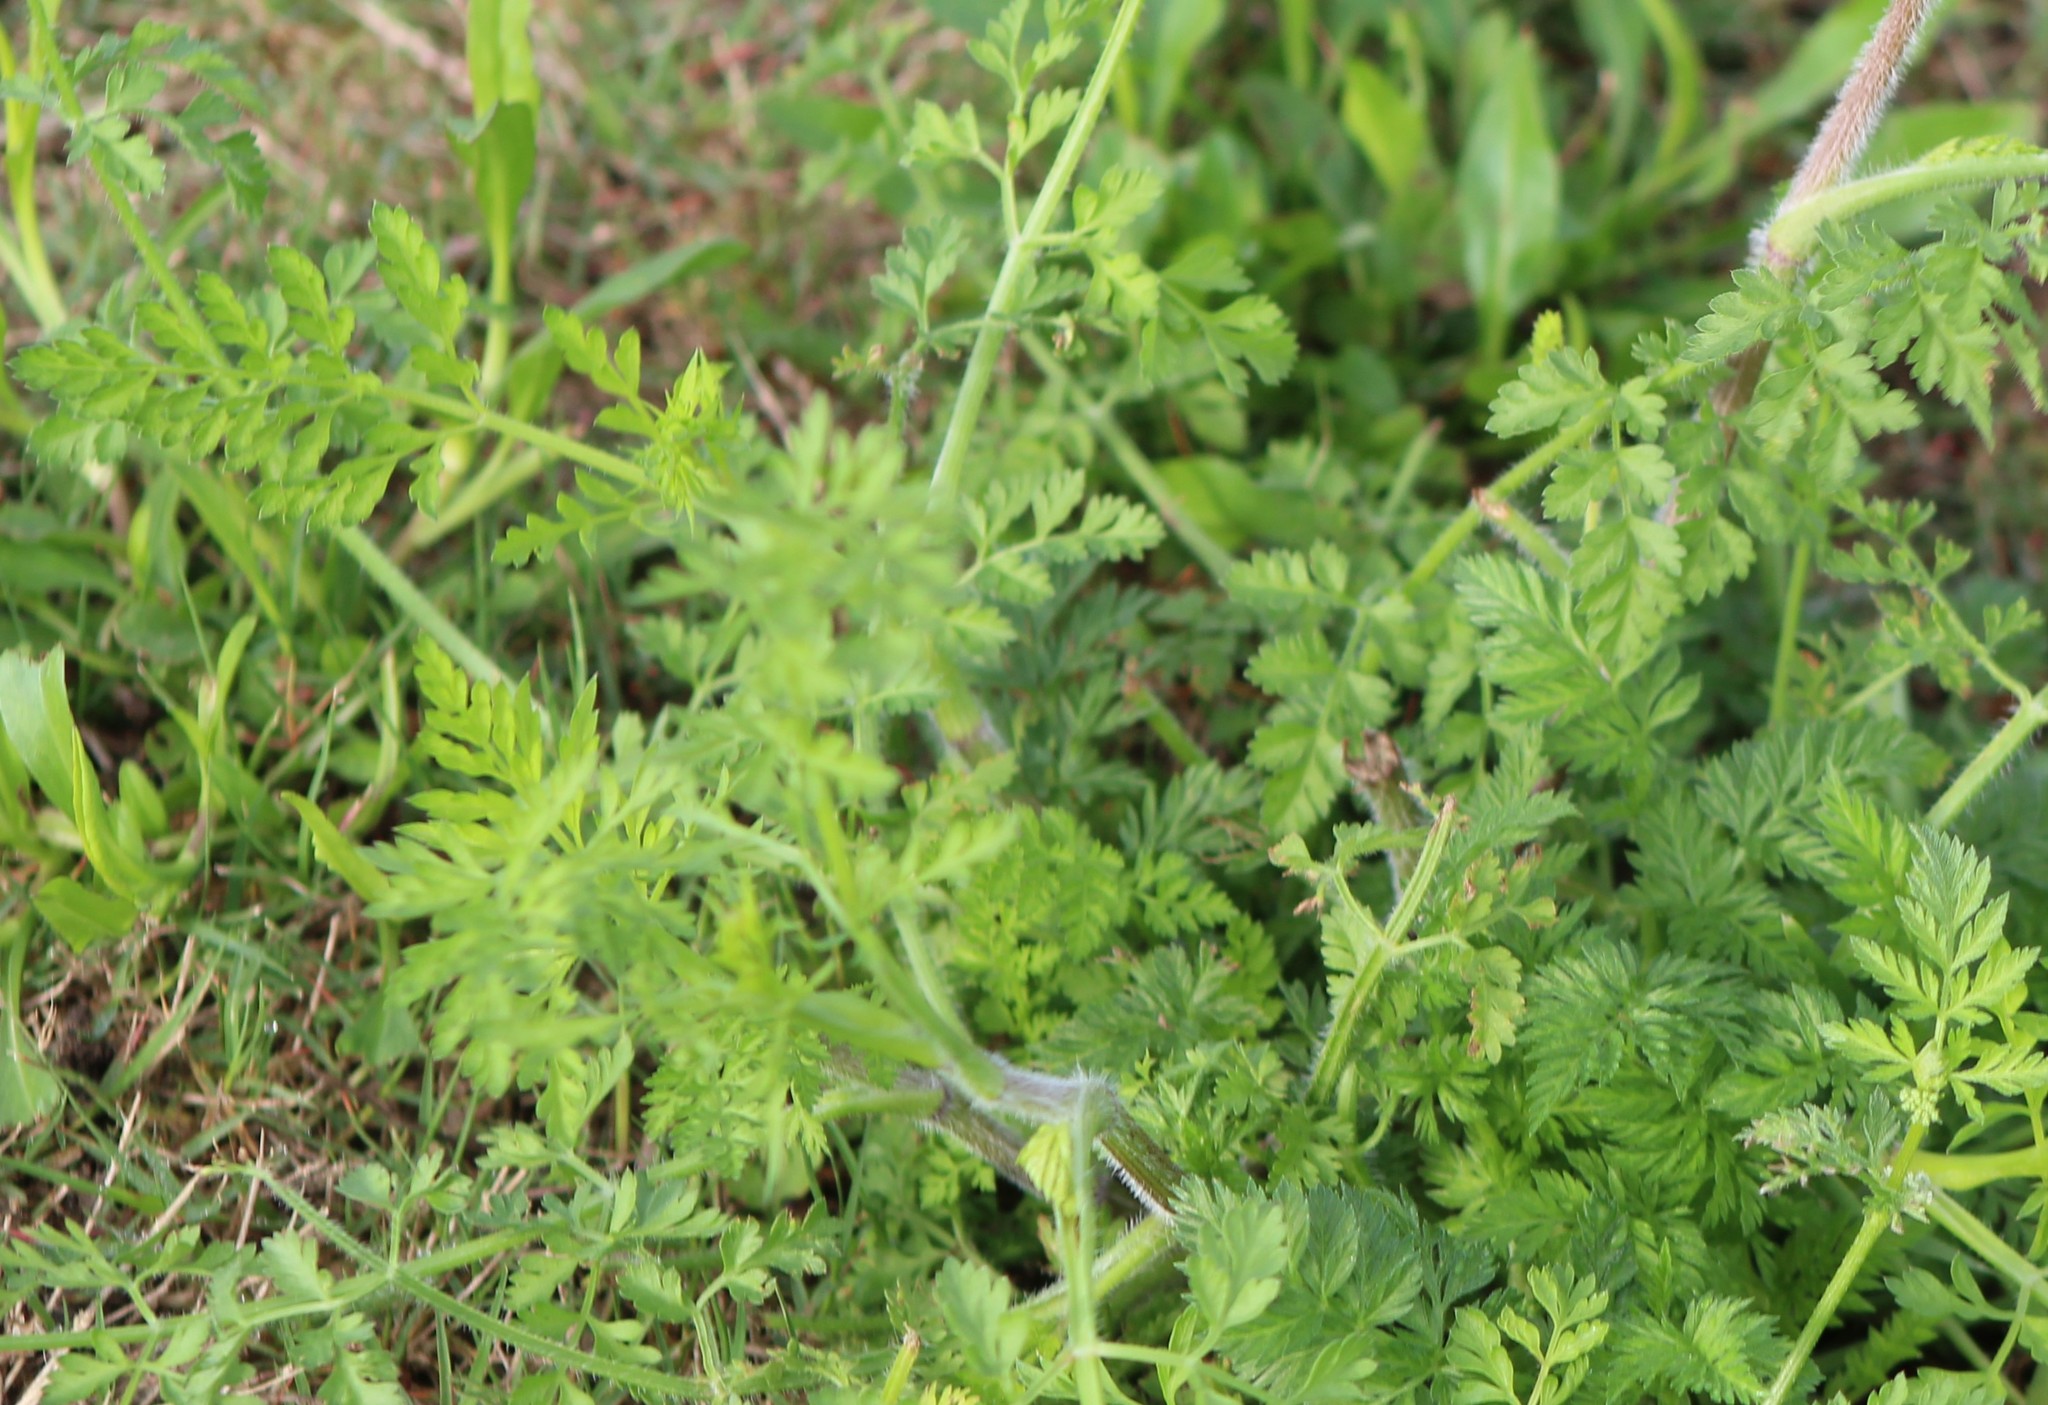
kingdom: Plantae
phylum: Tracheophyta
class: Magnoliopsida
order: Apiales
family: Apiaceae
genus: Torilis
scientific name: Torilis nodosa
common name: Knotted hedge-parsley
